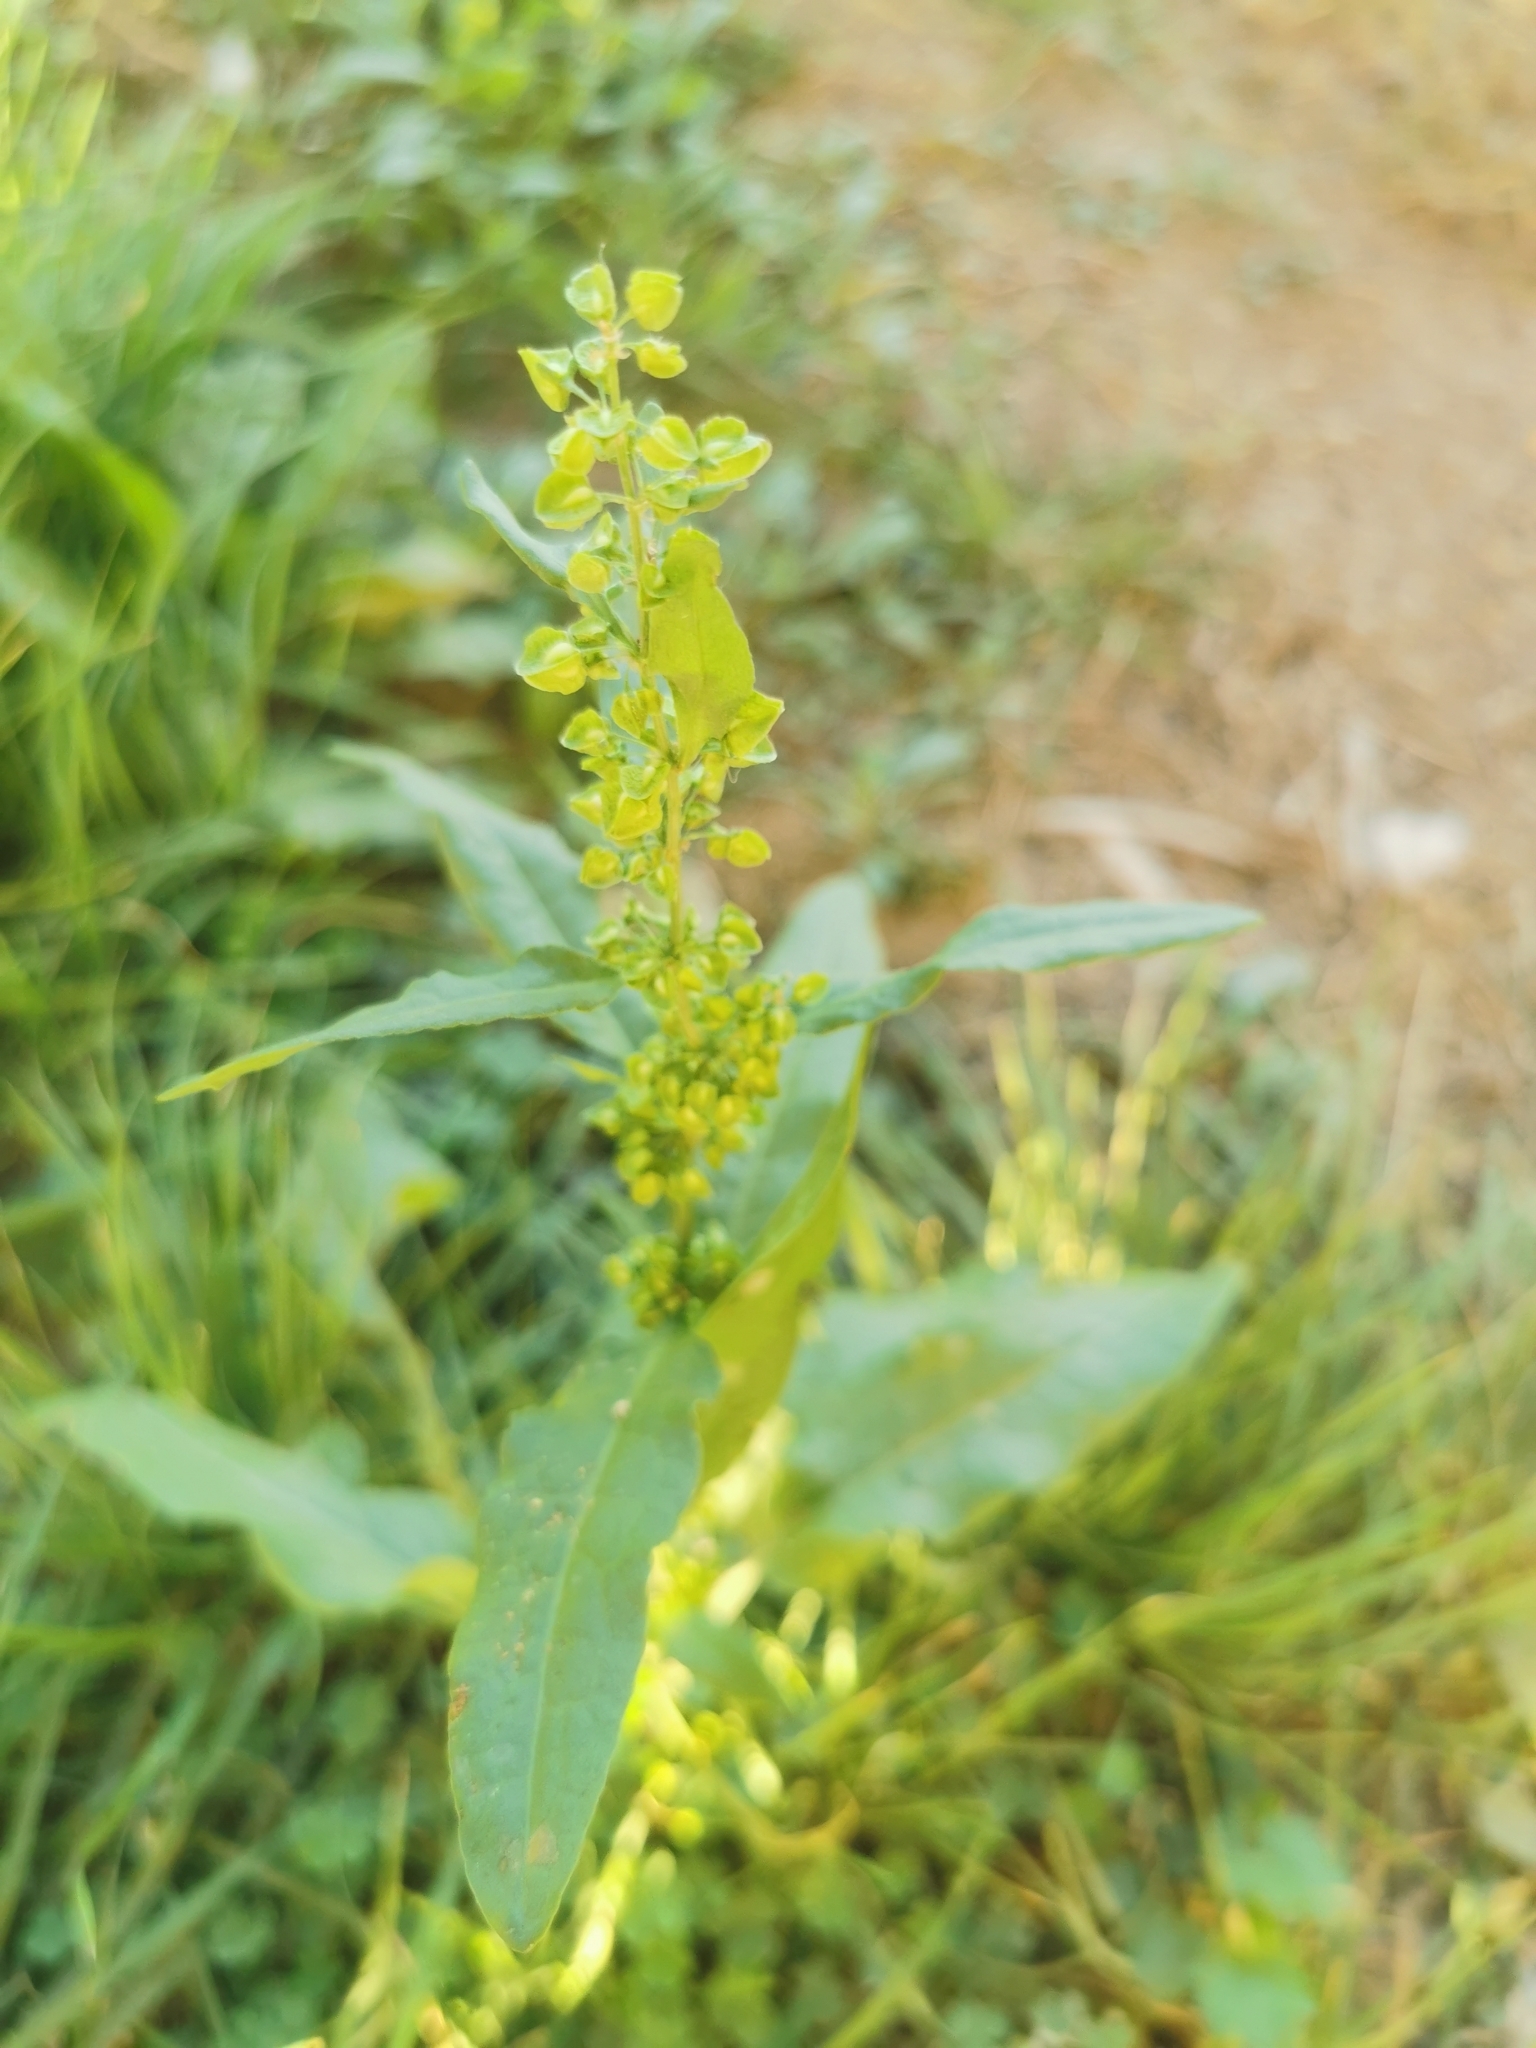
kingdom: Plantae
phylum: Tracheophyta
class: Magnoliopsida
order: Caryophyllales
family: Polygonaceae
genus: Rumex
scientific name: Rumex crispus
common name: Curled dock
